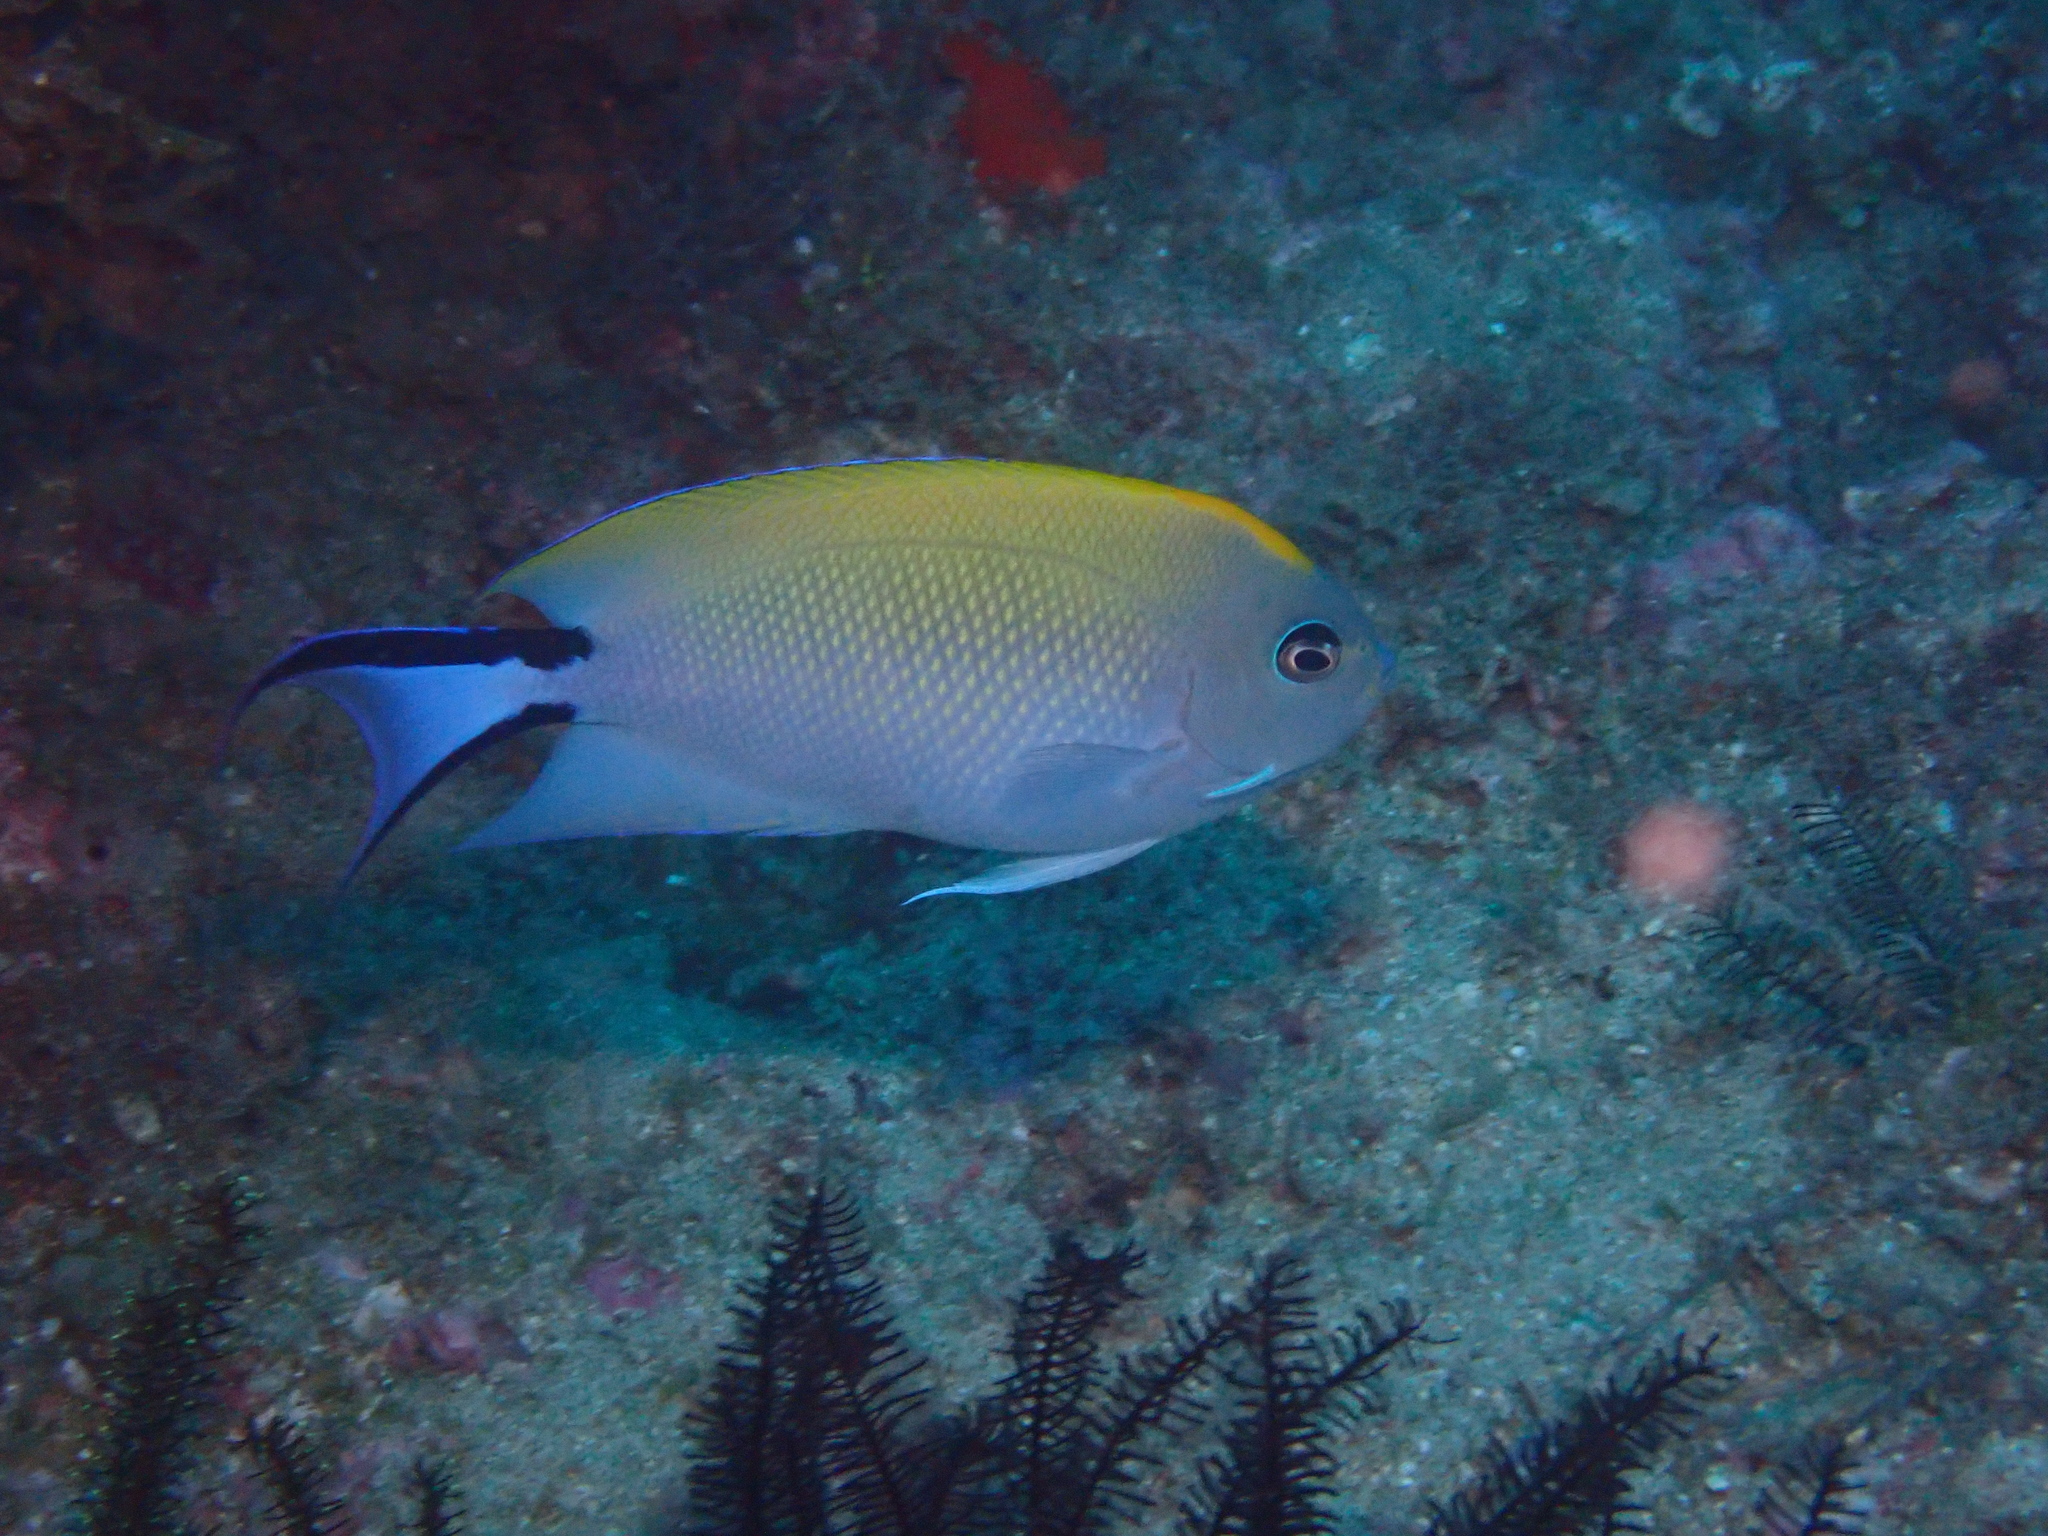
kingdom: Animalia
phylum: Chordata
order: Perciformes
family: Pomacanthidae
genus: Genicanthus
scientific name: Genicanthus melanospilos
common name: Black-spot angelfish
